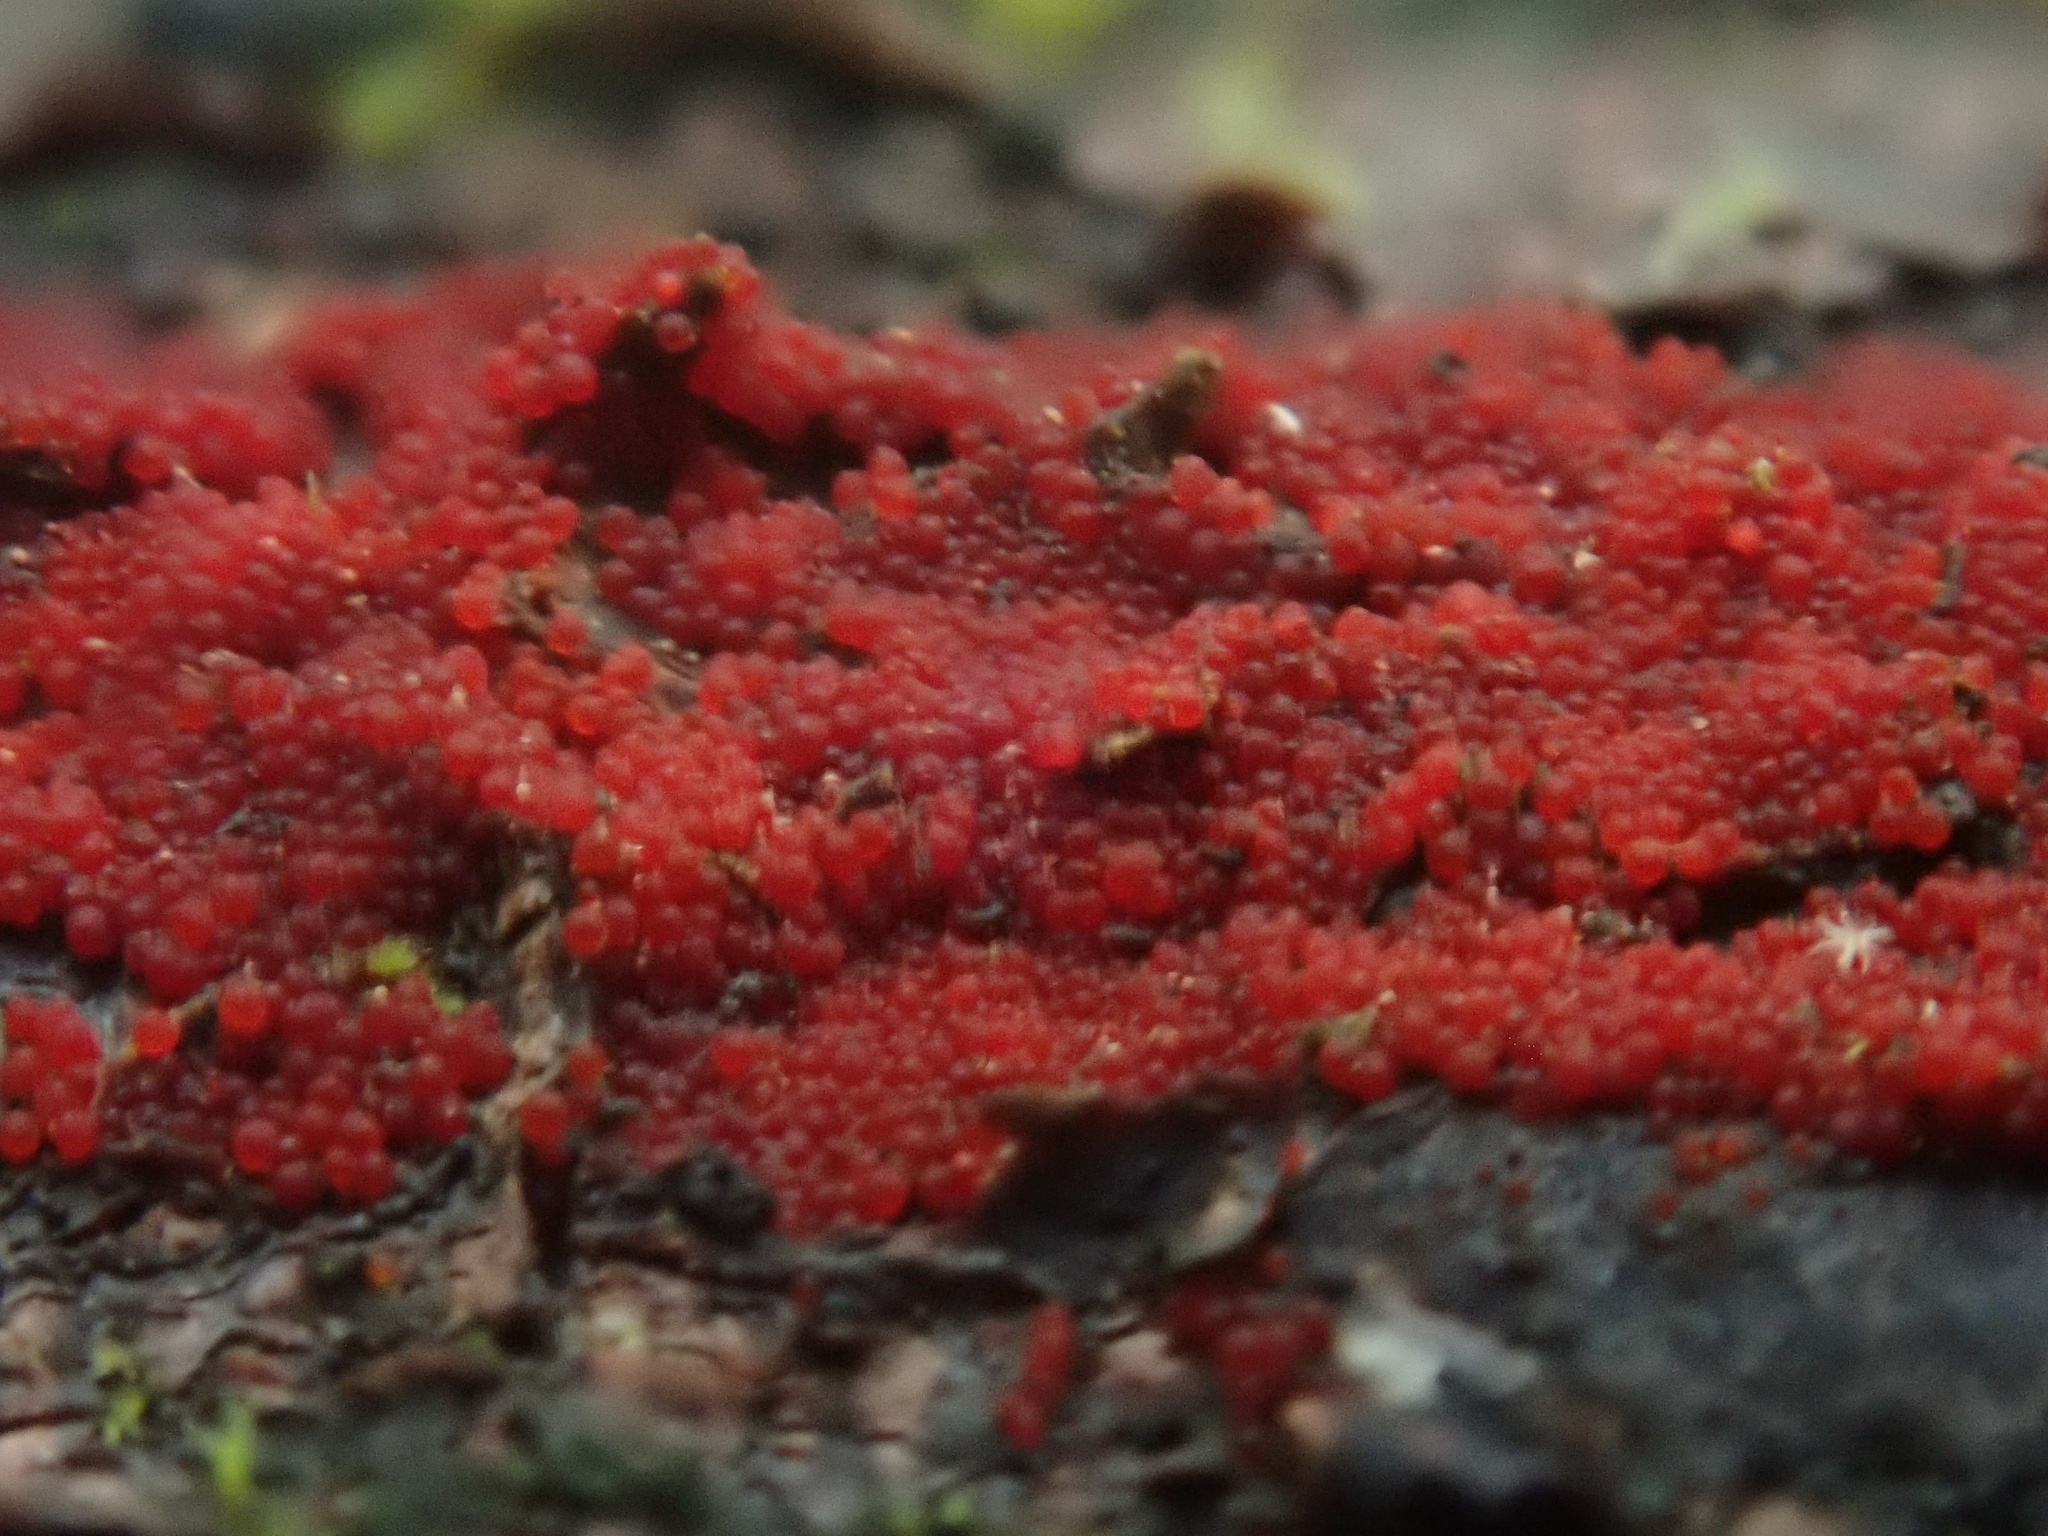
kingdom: Fungi
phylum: Ascomycota
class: Sordariomycetes
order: Hypocreales
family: Nectriaceae
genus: Dialonectria
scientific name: Dialonectria sanguinea
